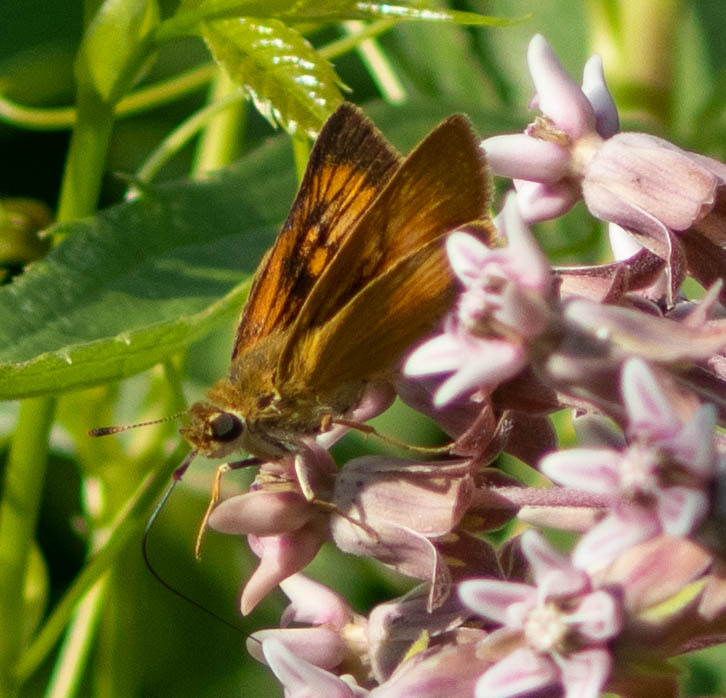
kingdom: Animalia
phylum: Arthropoda
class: Insecta
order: Lepidoptera
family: Hesperiidae
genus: Atrytone
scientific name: Atrytone delaware
